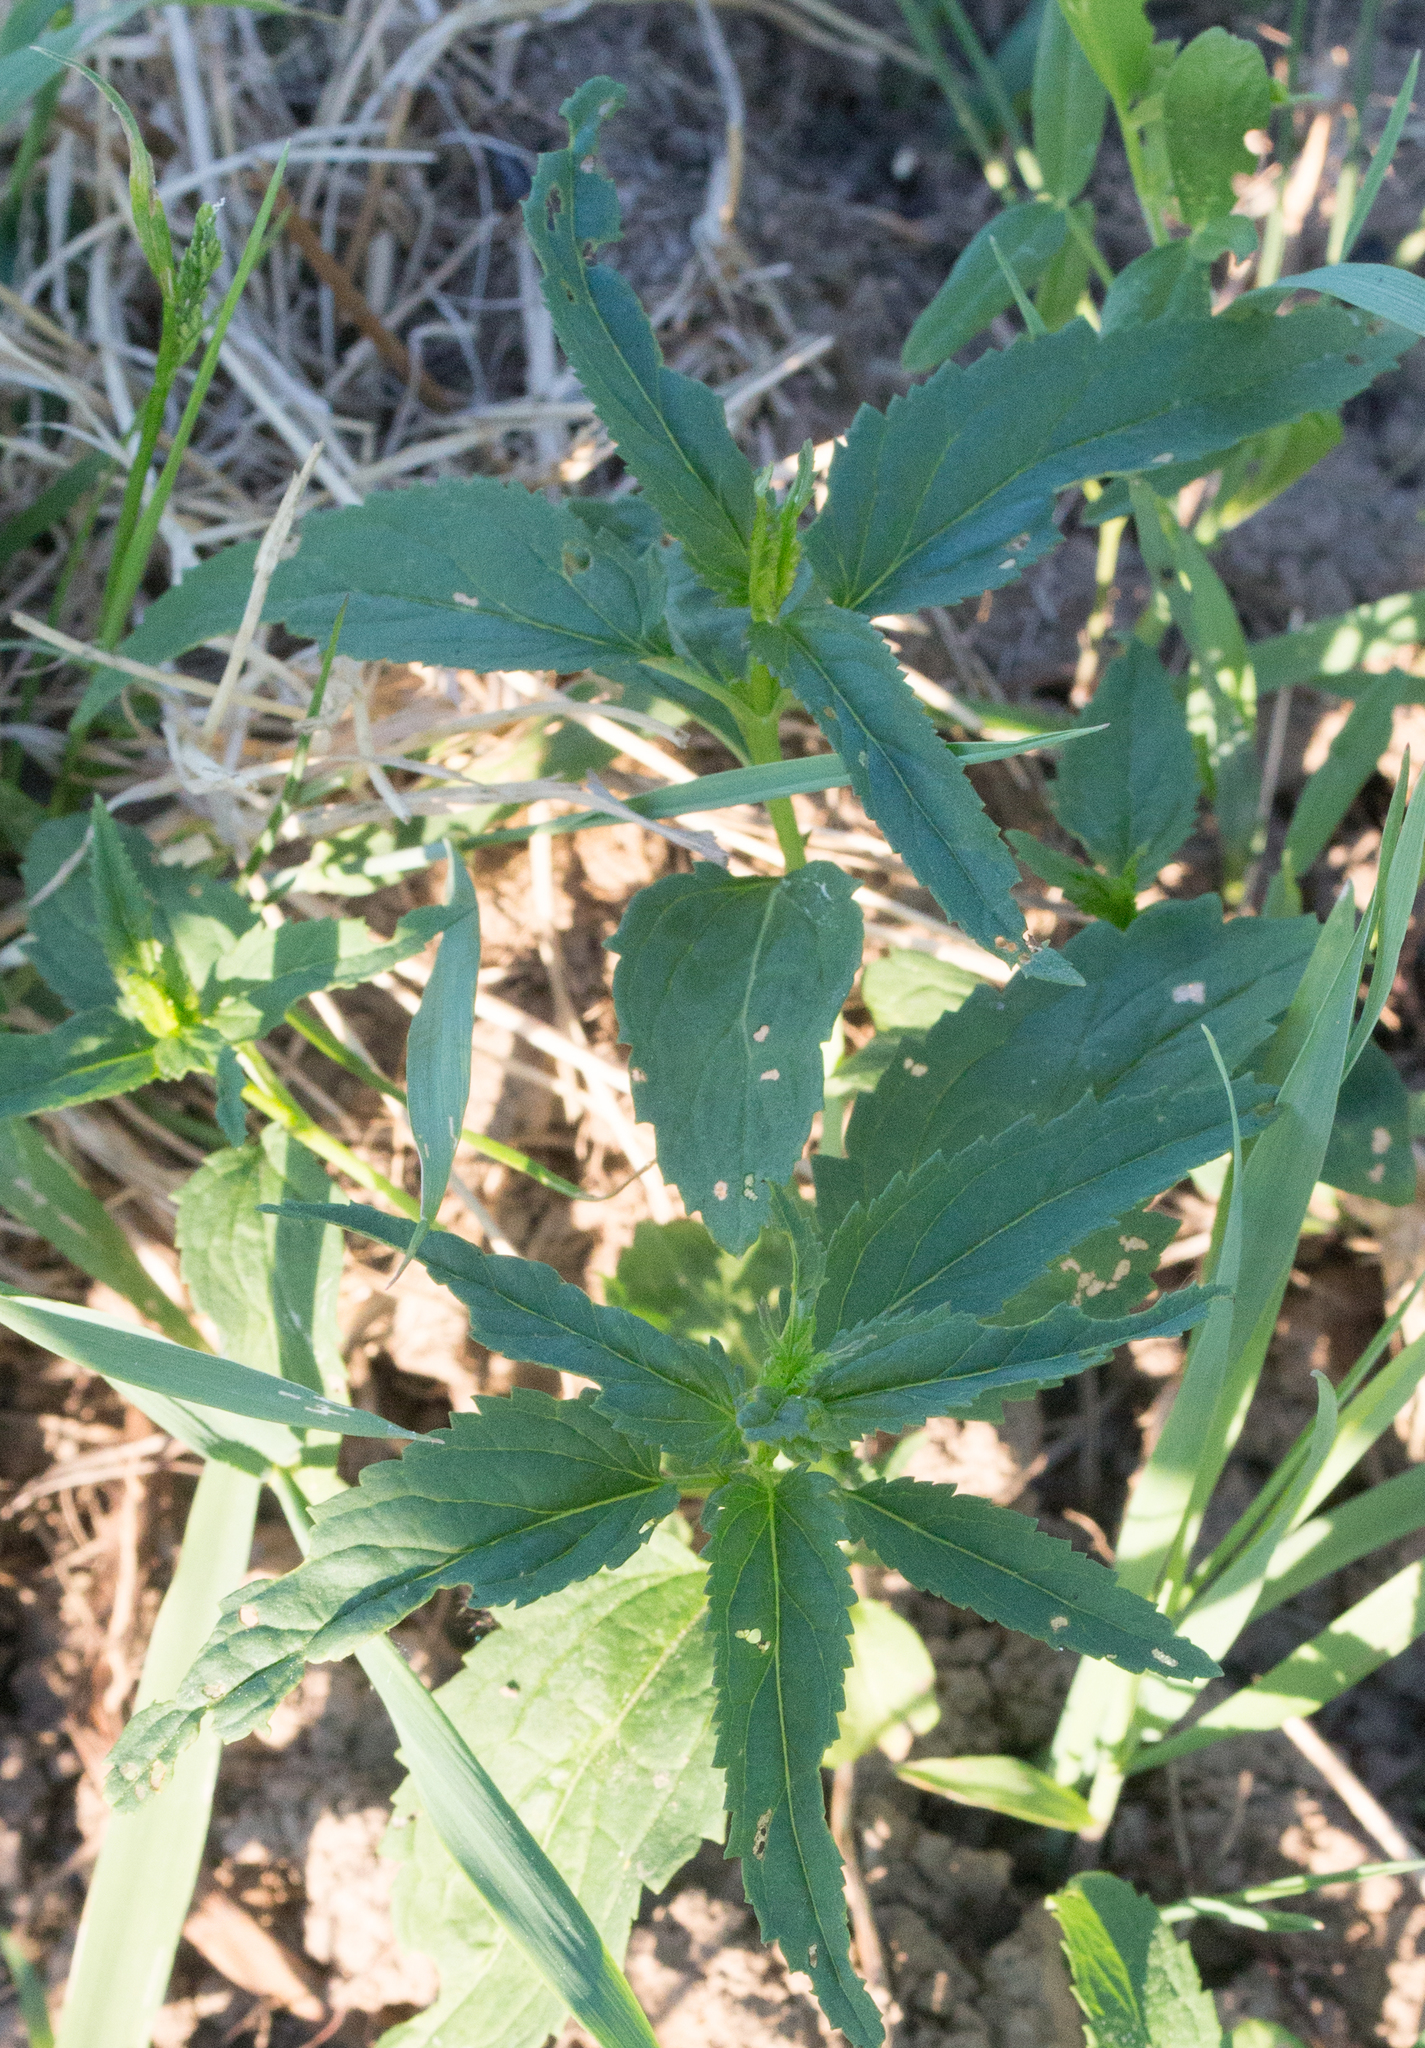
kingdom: Plantae
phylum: Tracheophyta
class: Magnoliopsida
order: Lamiales
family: Plantaginaceae
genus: Veronica
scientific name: Veronica longifolia
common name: Garden speedwell
